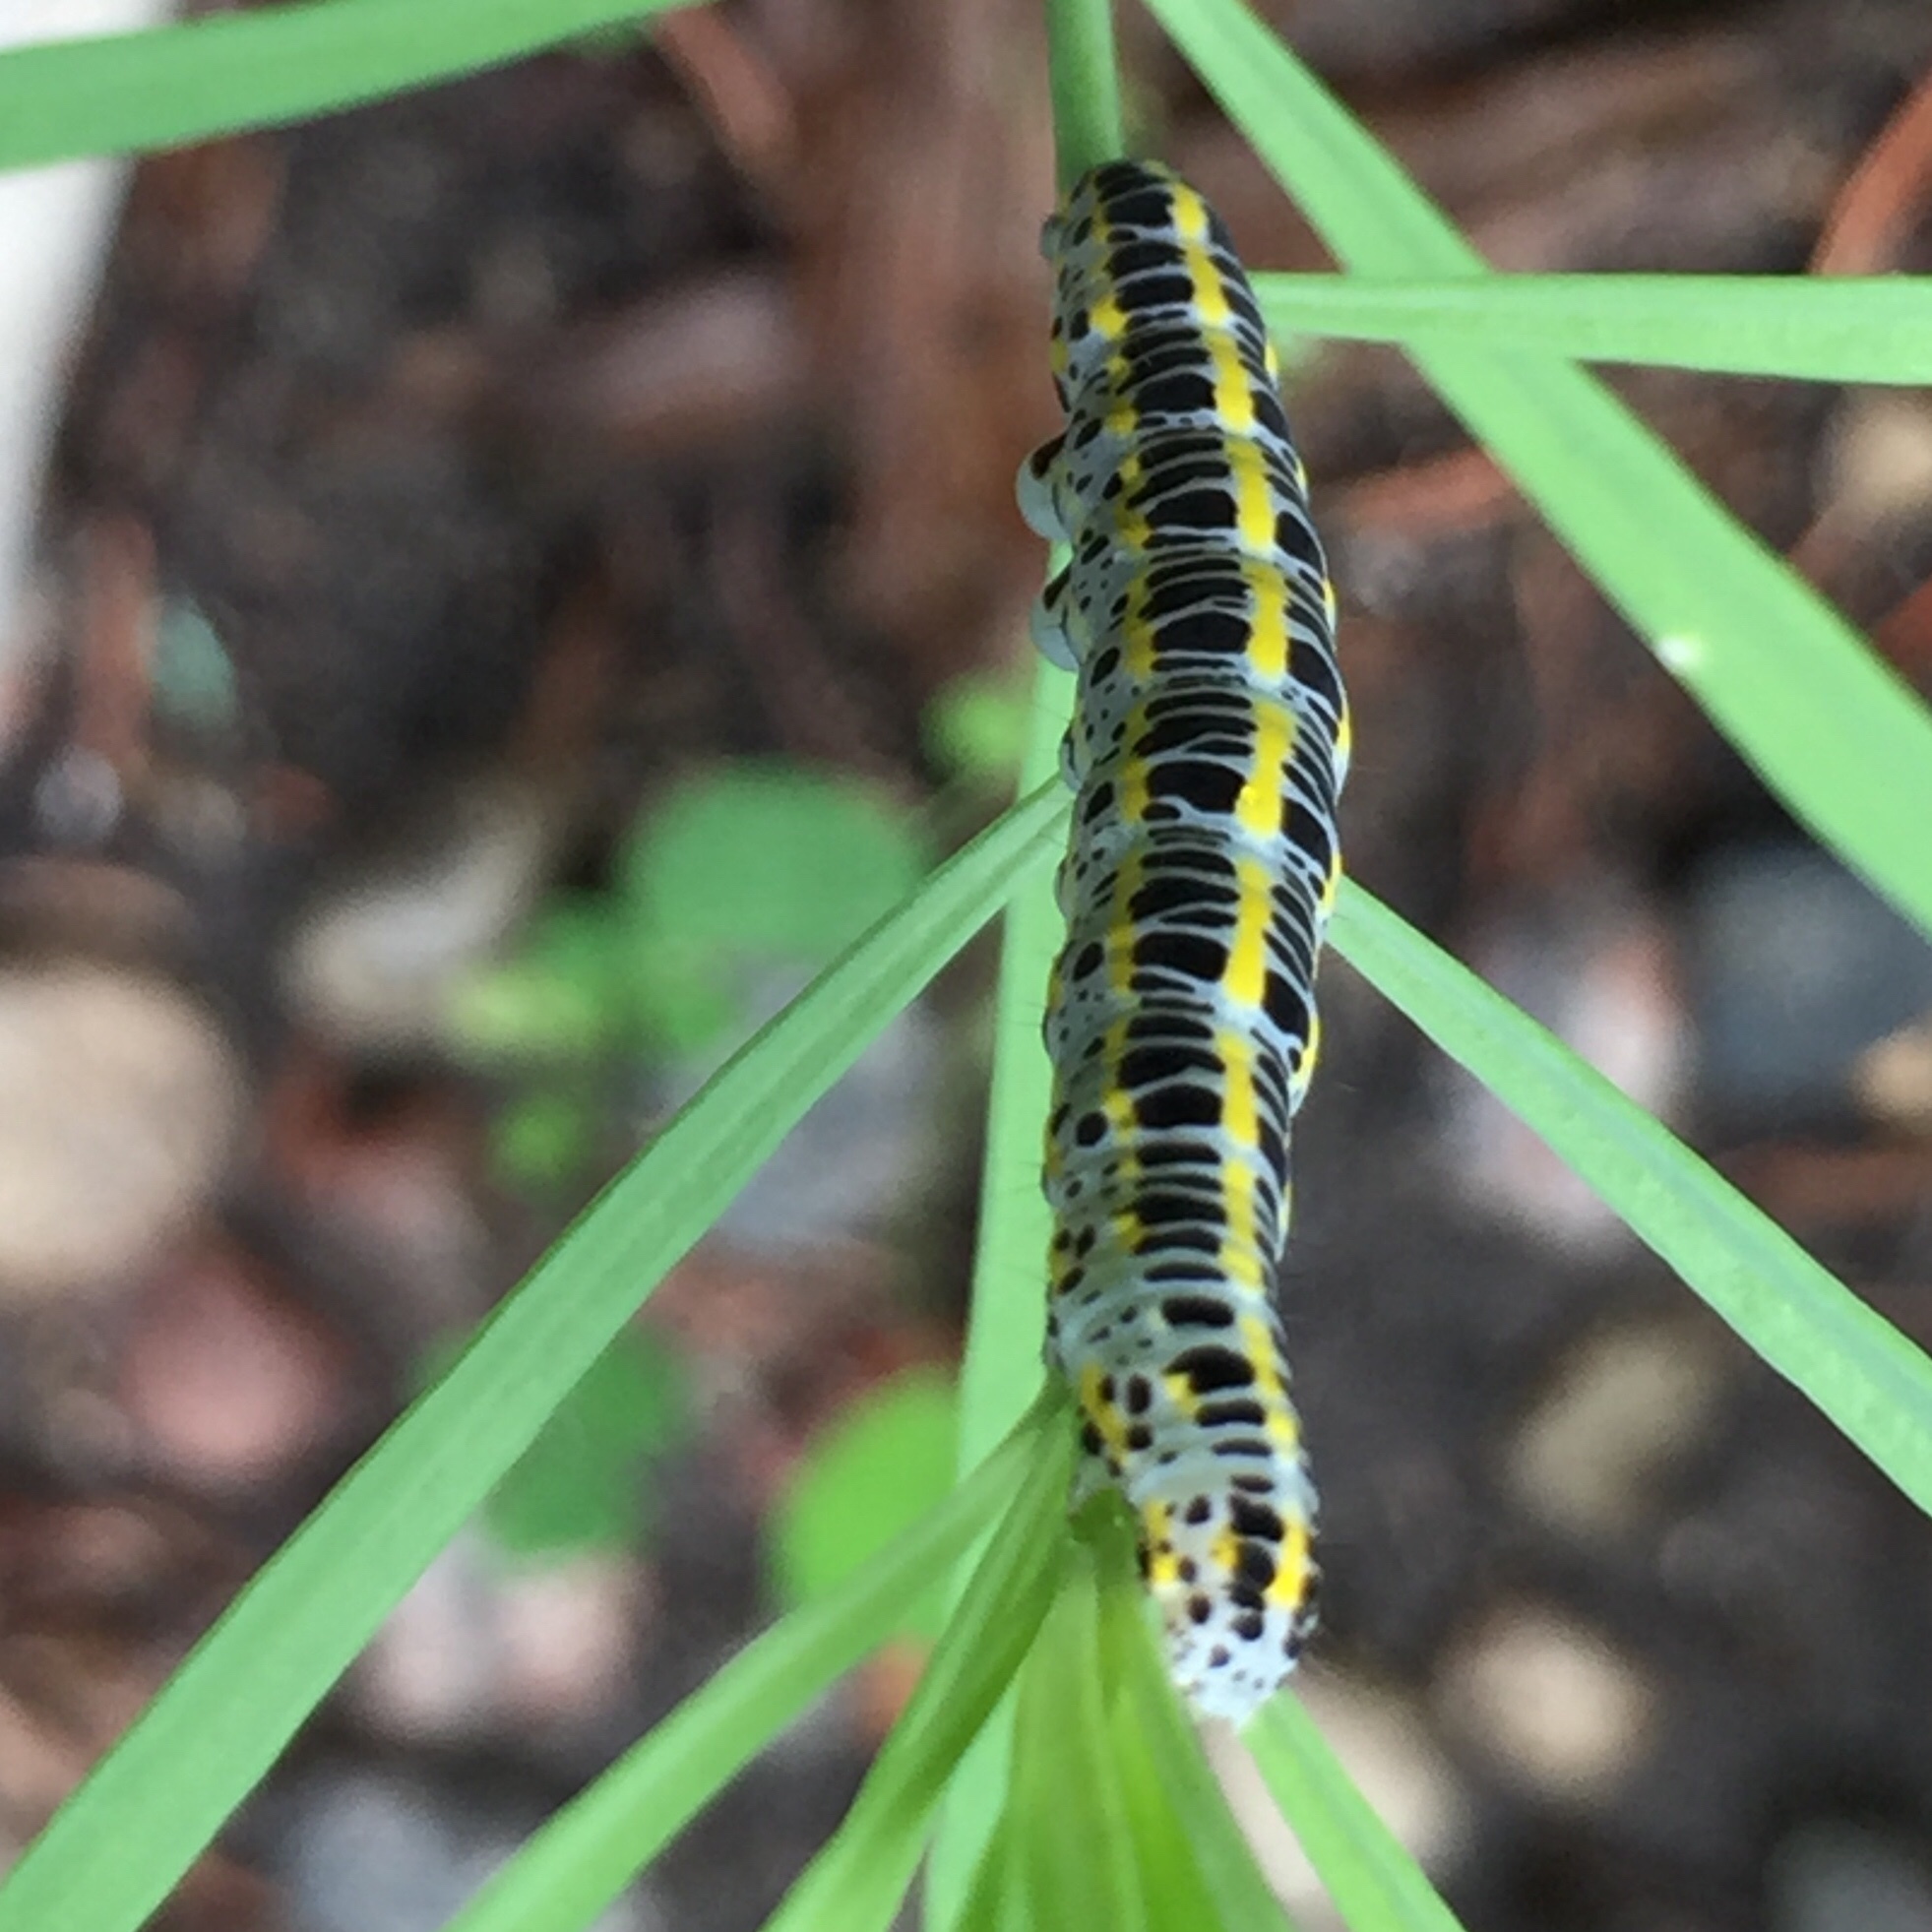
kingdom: Animalia
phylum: Arthropoda
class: Insecta
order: Lepidoptera
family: Noctuidae
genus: Melanchra
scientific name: Melanchra picta
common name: Zebra caterpillar
